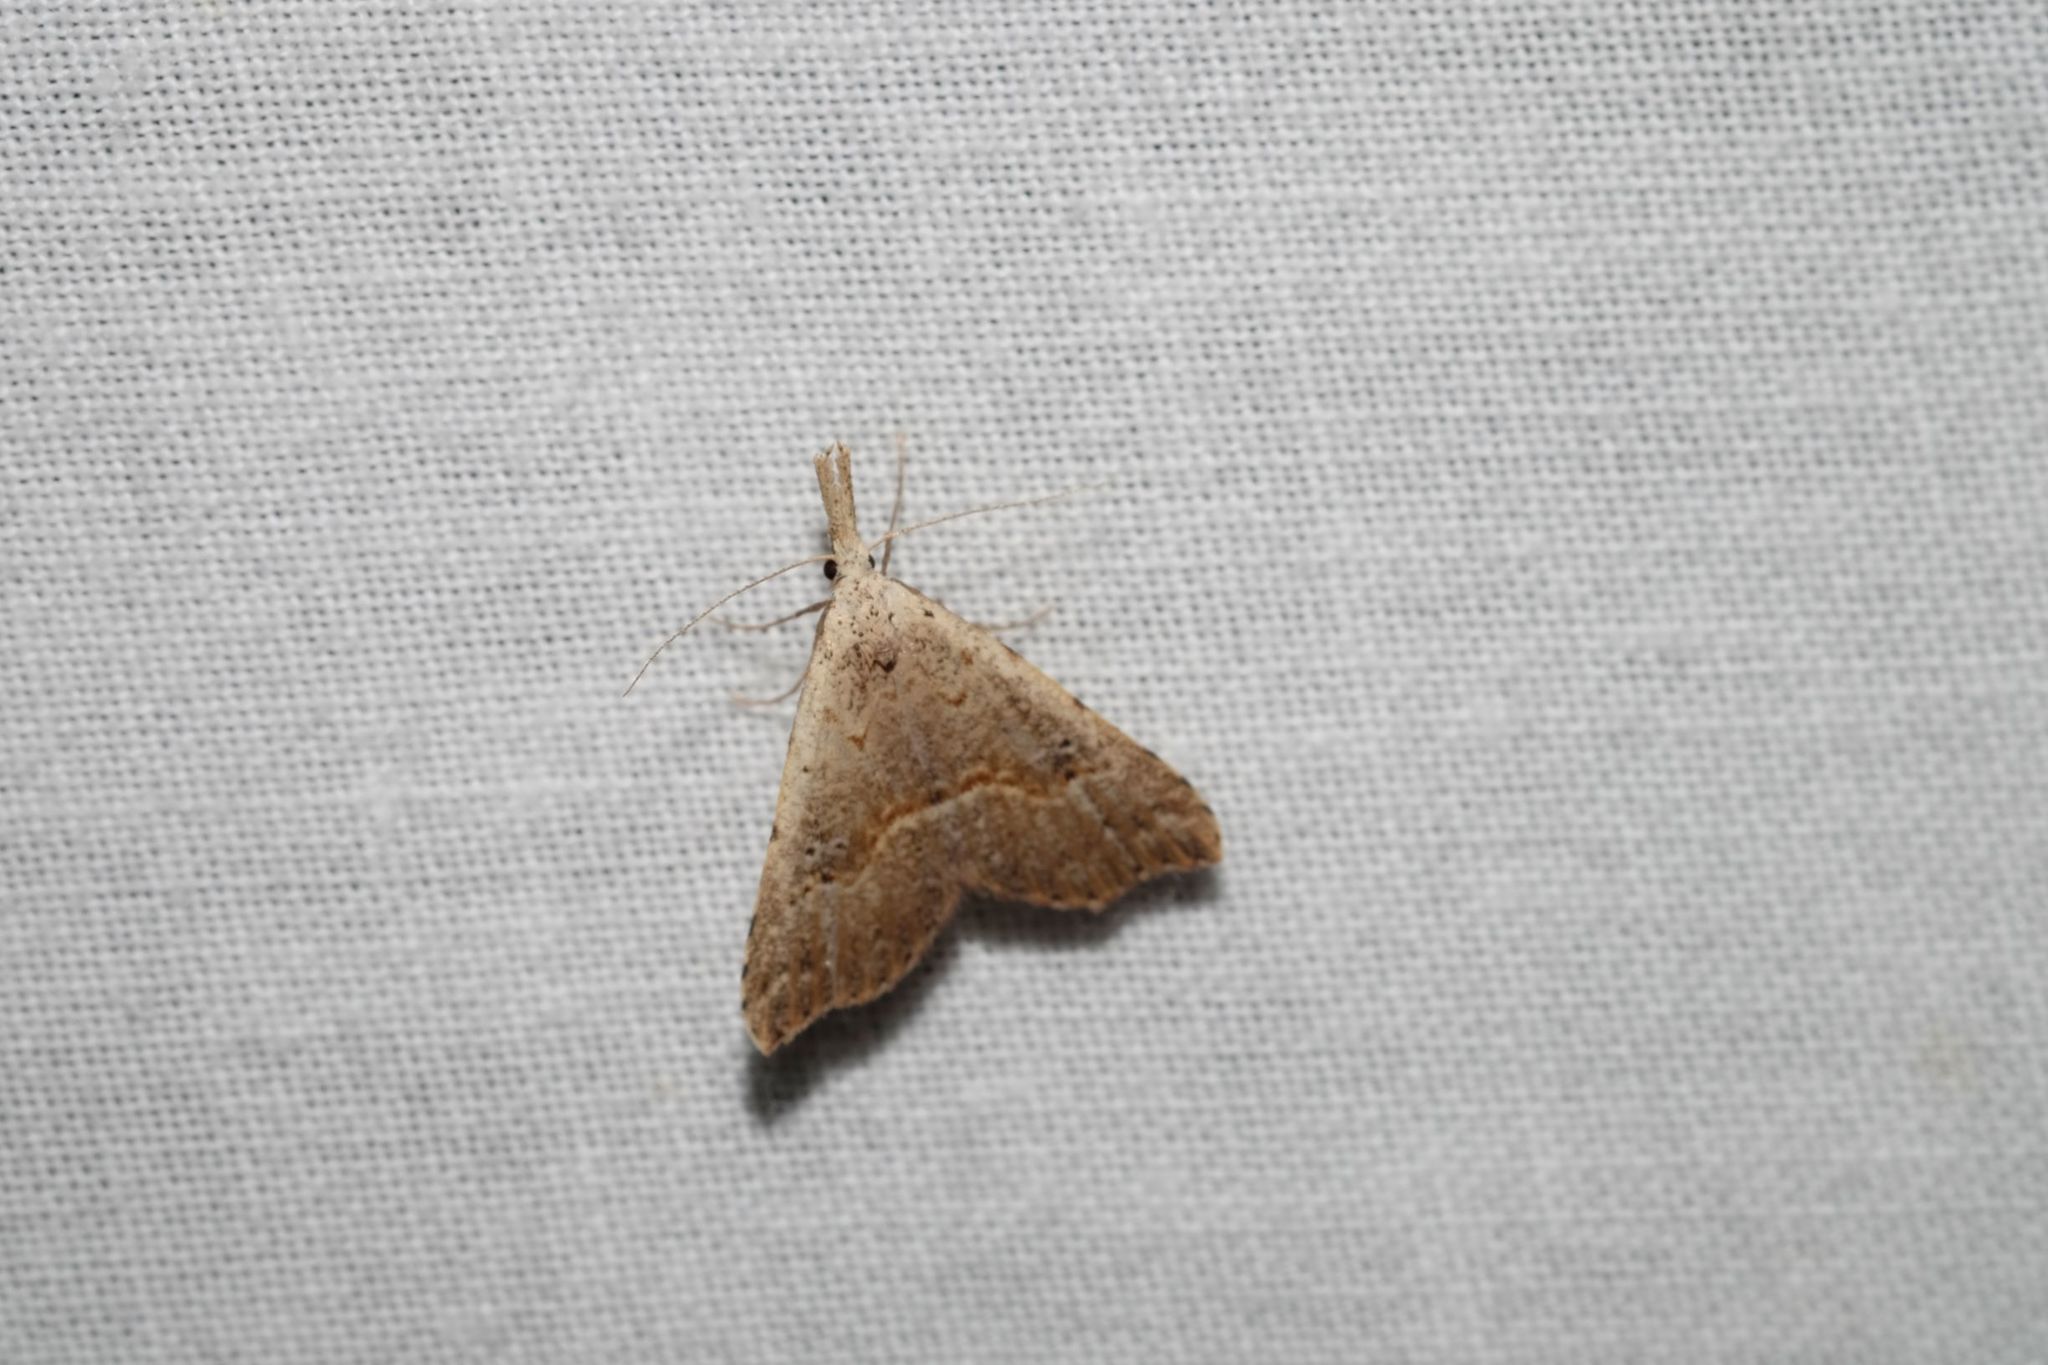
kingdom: Animalia
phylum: Arthropoda
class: Insecta
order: Lepidoptera
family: Erebidae
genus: Trigonistis
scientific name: Trigonistis asthenopa
